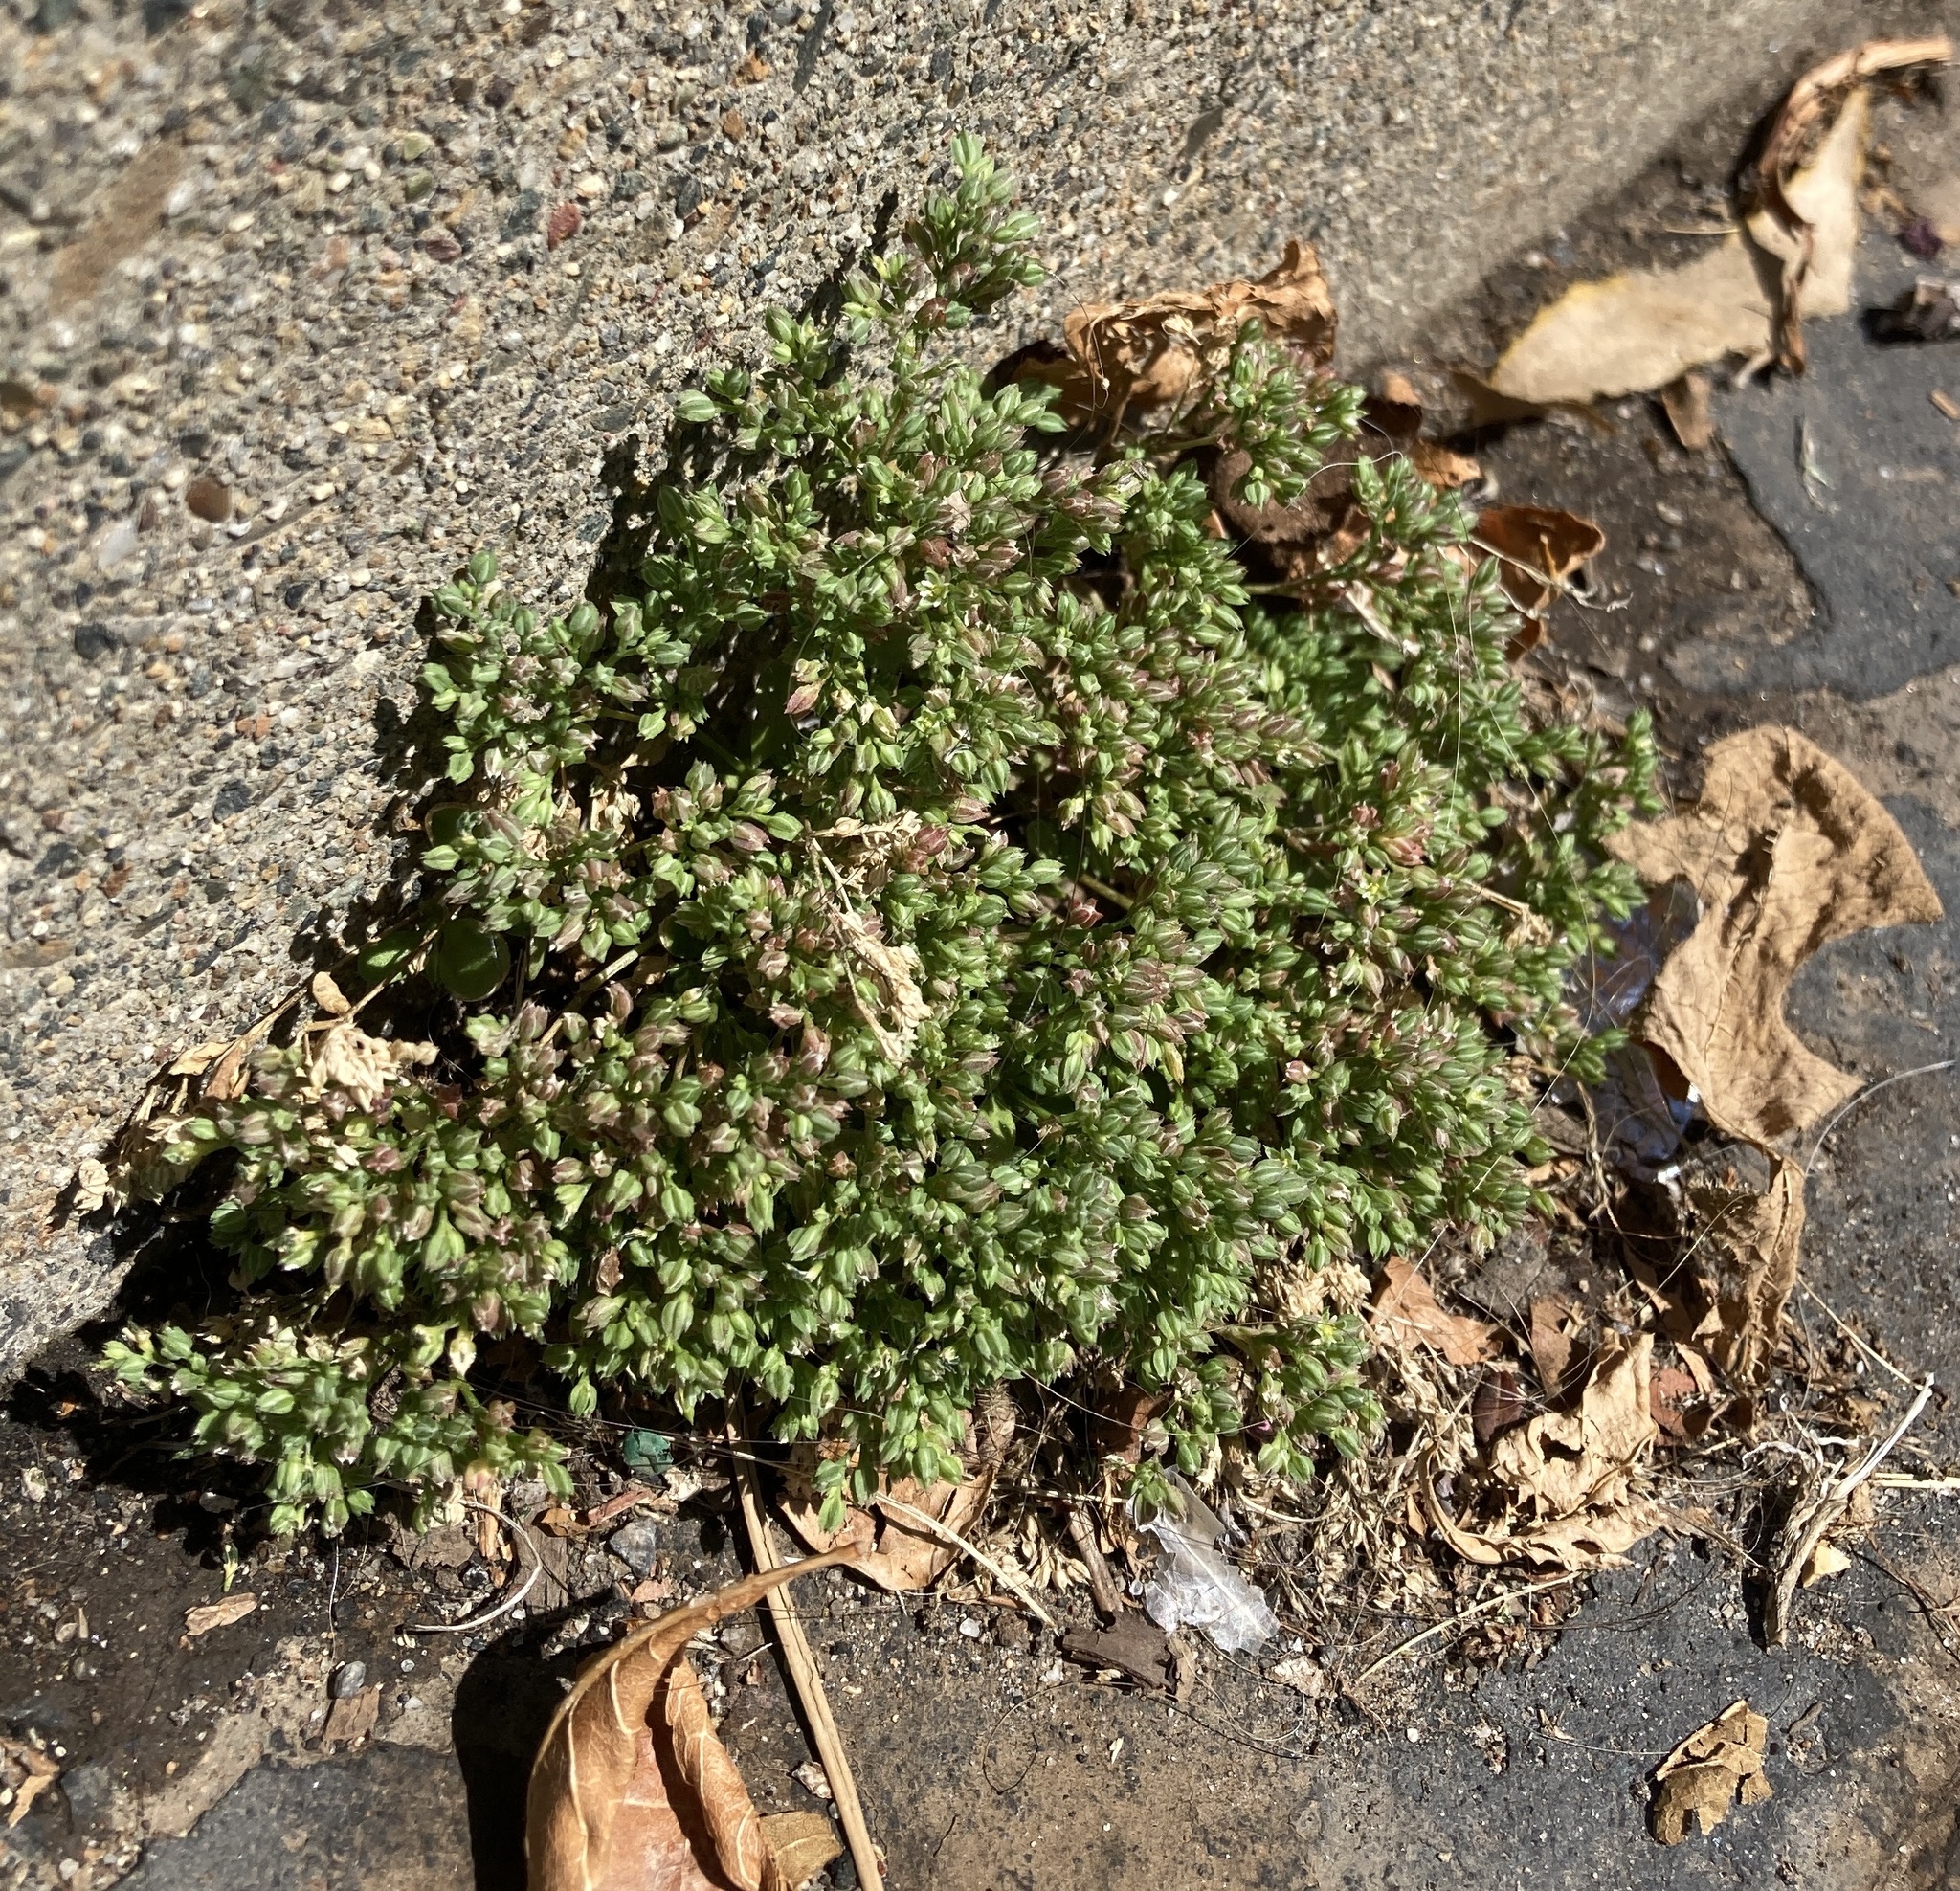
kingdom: Plantae
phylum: Tracheophyta
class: Magnoliopsida
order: Caryophyllales
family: Caryophyllaceae
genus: Polycarpon
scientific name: Polycarpon tetraphyllum
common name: Four-leaved all-seed
